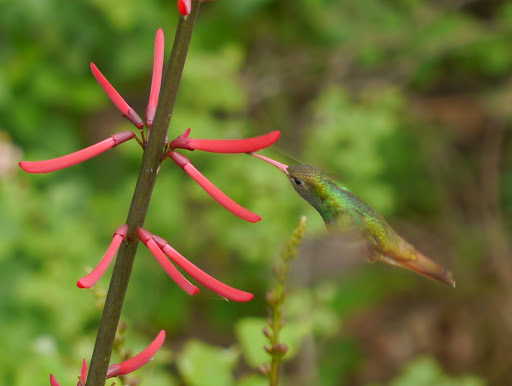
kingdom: Animalia
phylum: Chordata
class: Aves
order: Apodiformes
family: Trochilidae
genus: Amazilia
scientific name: Amazilia yucatanensis
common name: Buff-bellied hummingbird
